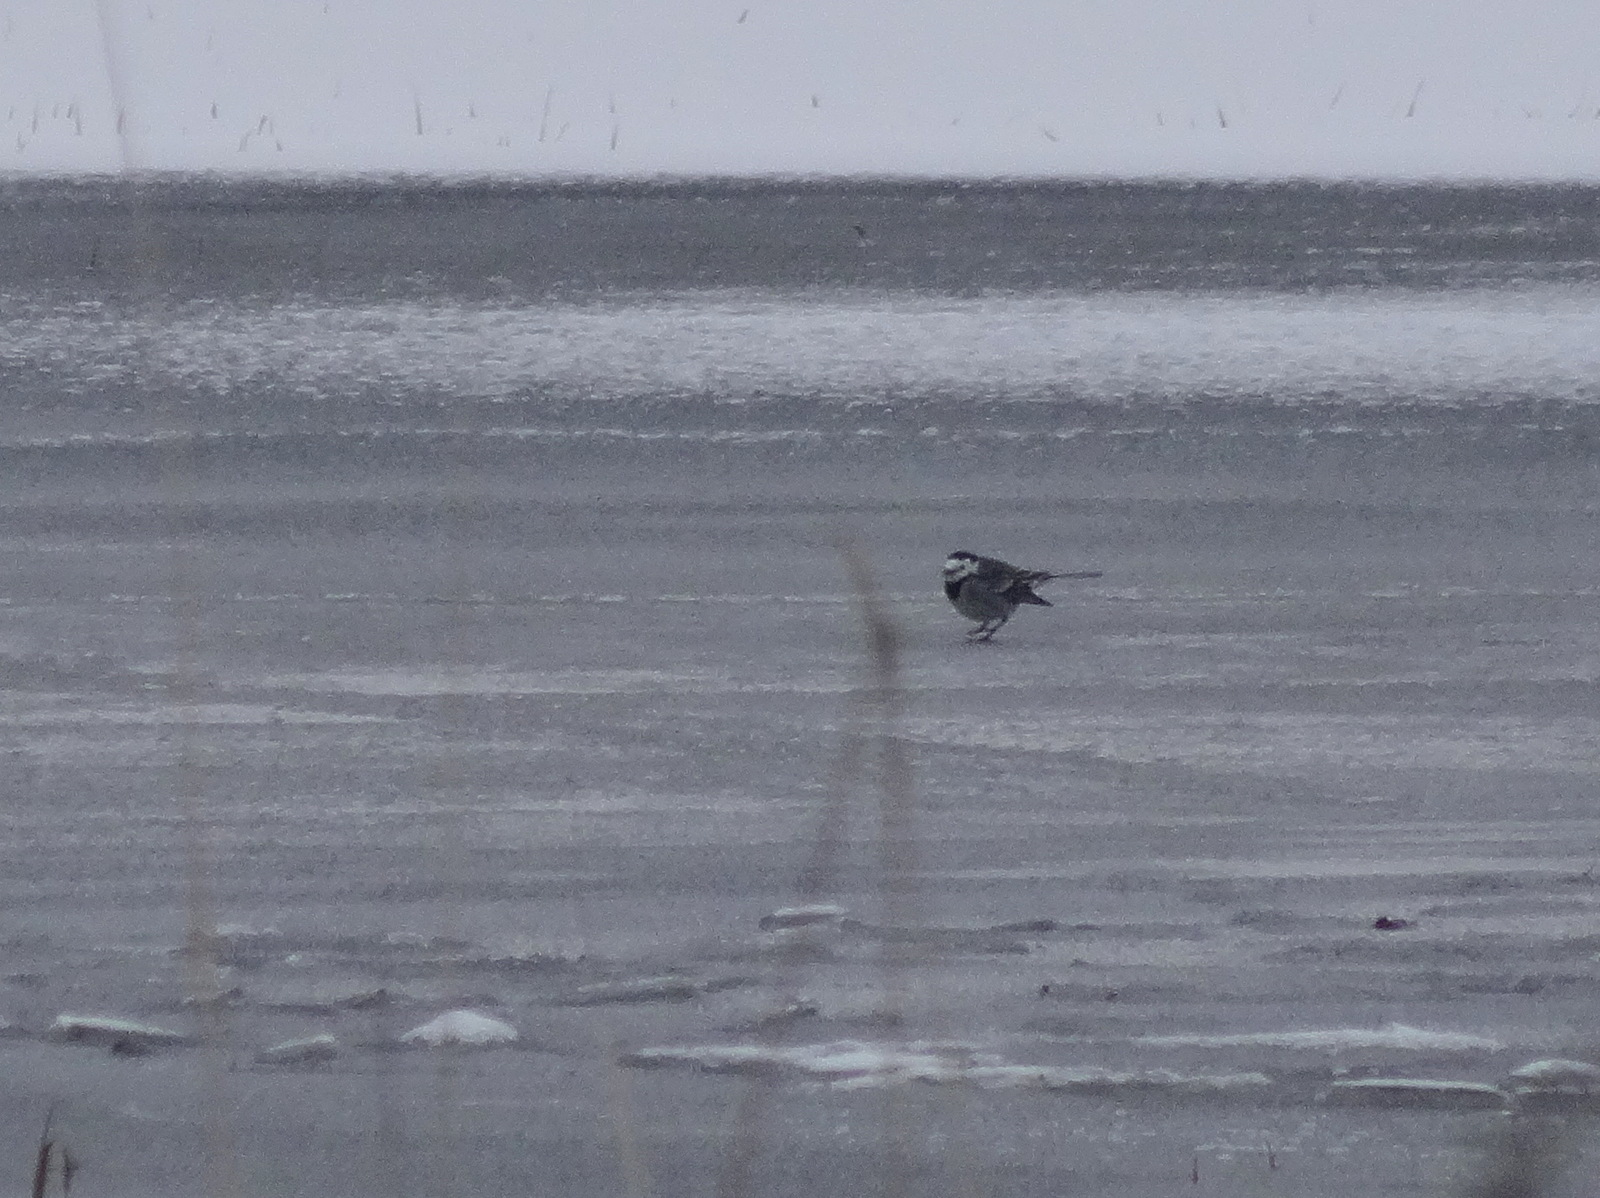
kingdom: Animalia
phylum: Chordata
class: Aves
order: Passeriformes
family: Motacillidae
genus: Motacilla
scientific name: Motacilla alba
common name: White wagtail
